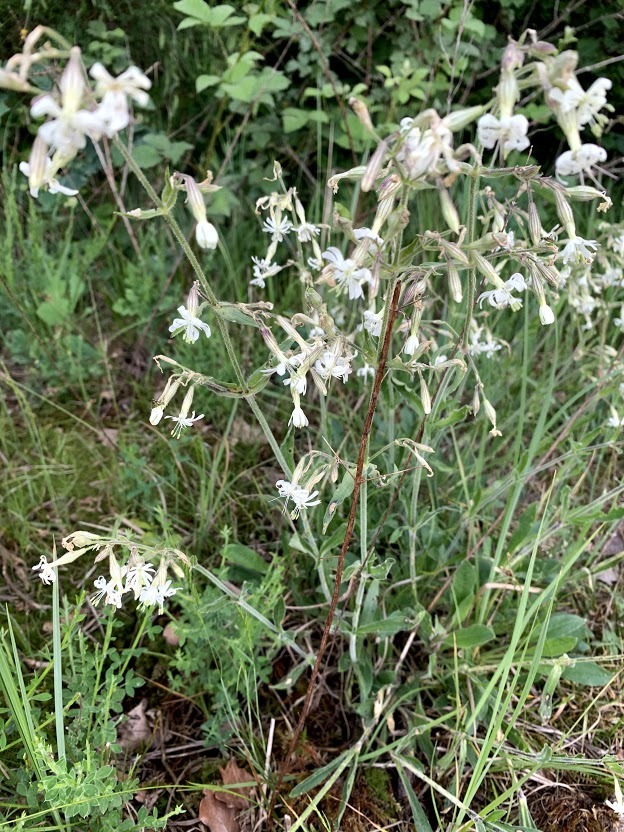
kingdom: Plantae
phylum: Tracheophyta
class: Magnoliopsida
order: Caryophyllales
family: Caryophyllaceae
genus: Silene
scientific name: Silene nutans
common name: Nottingham catchfly
